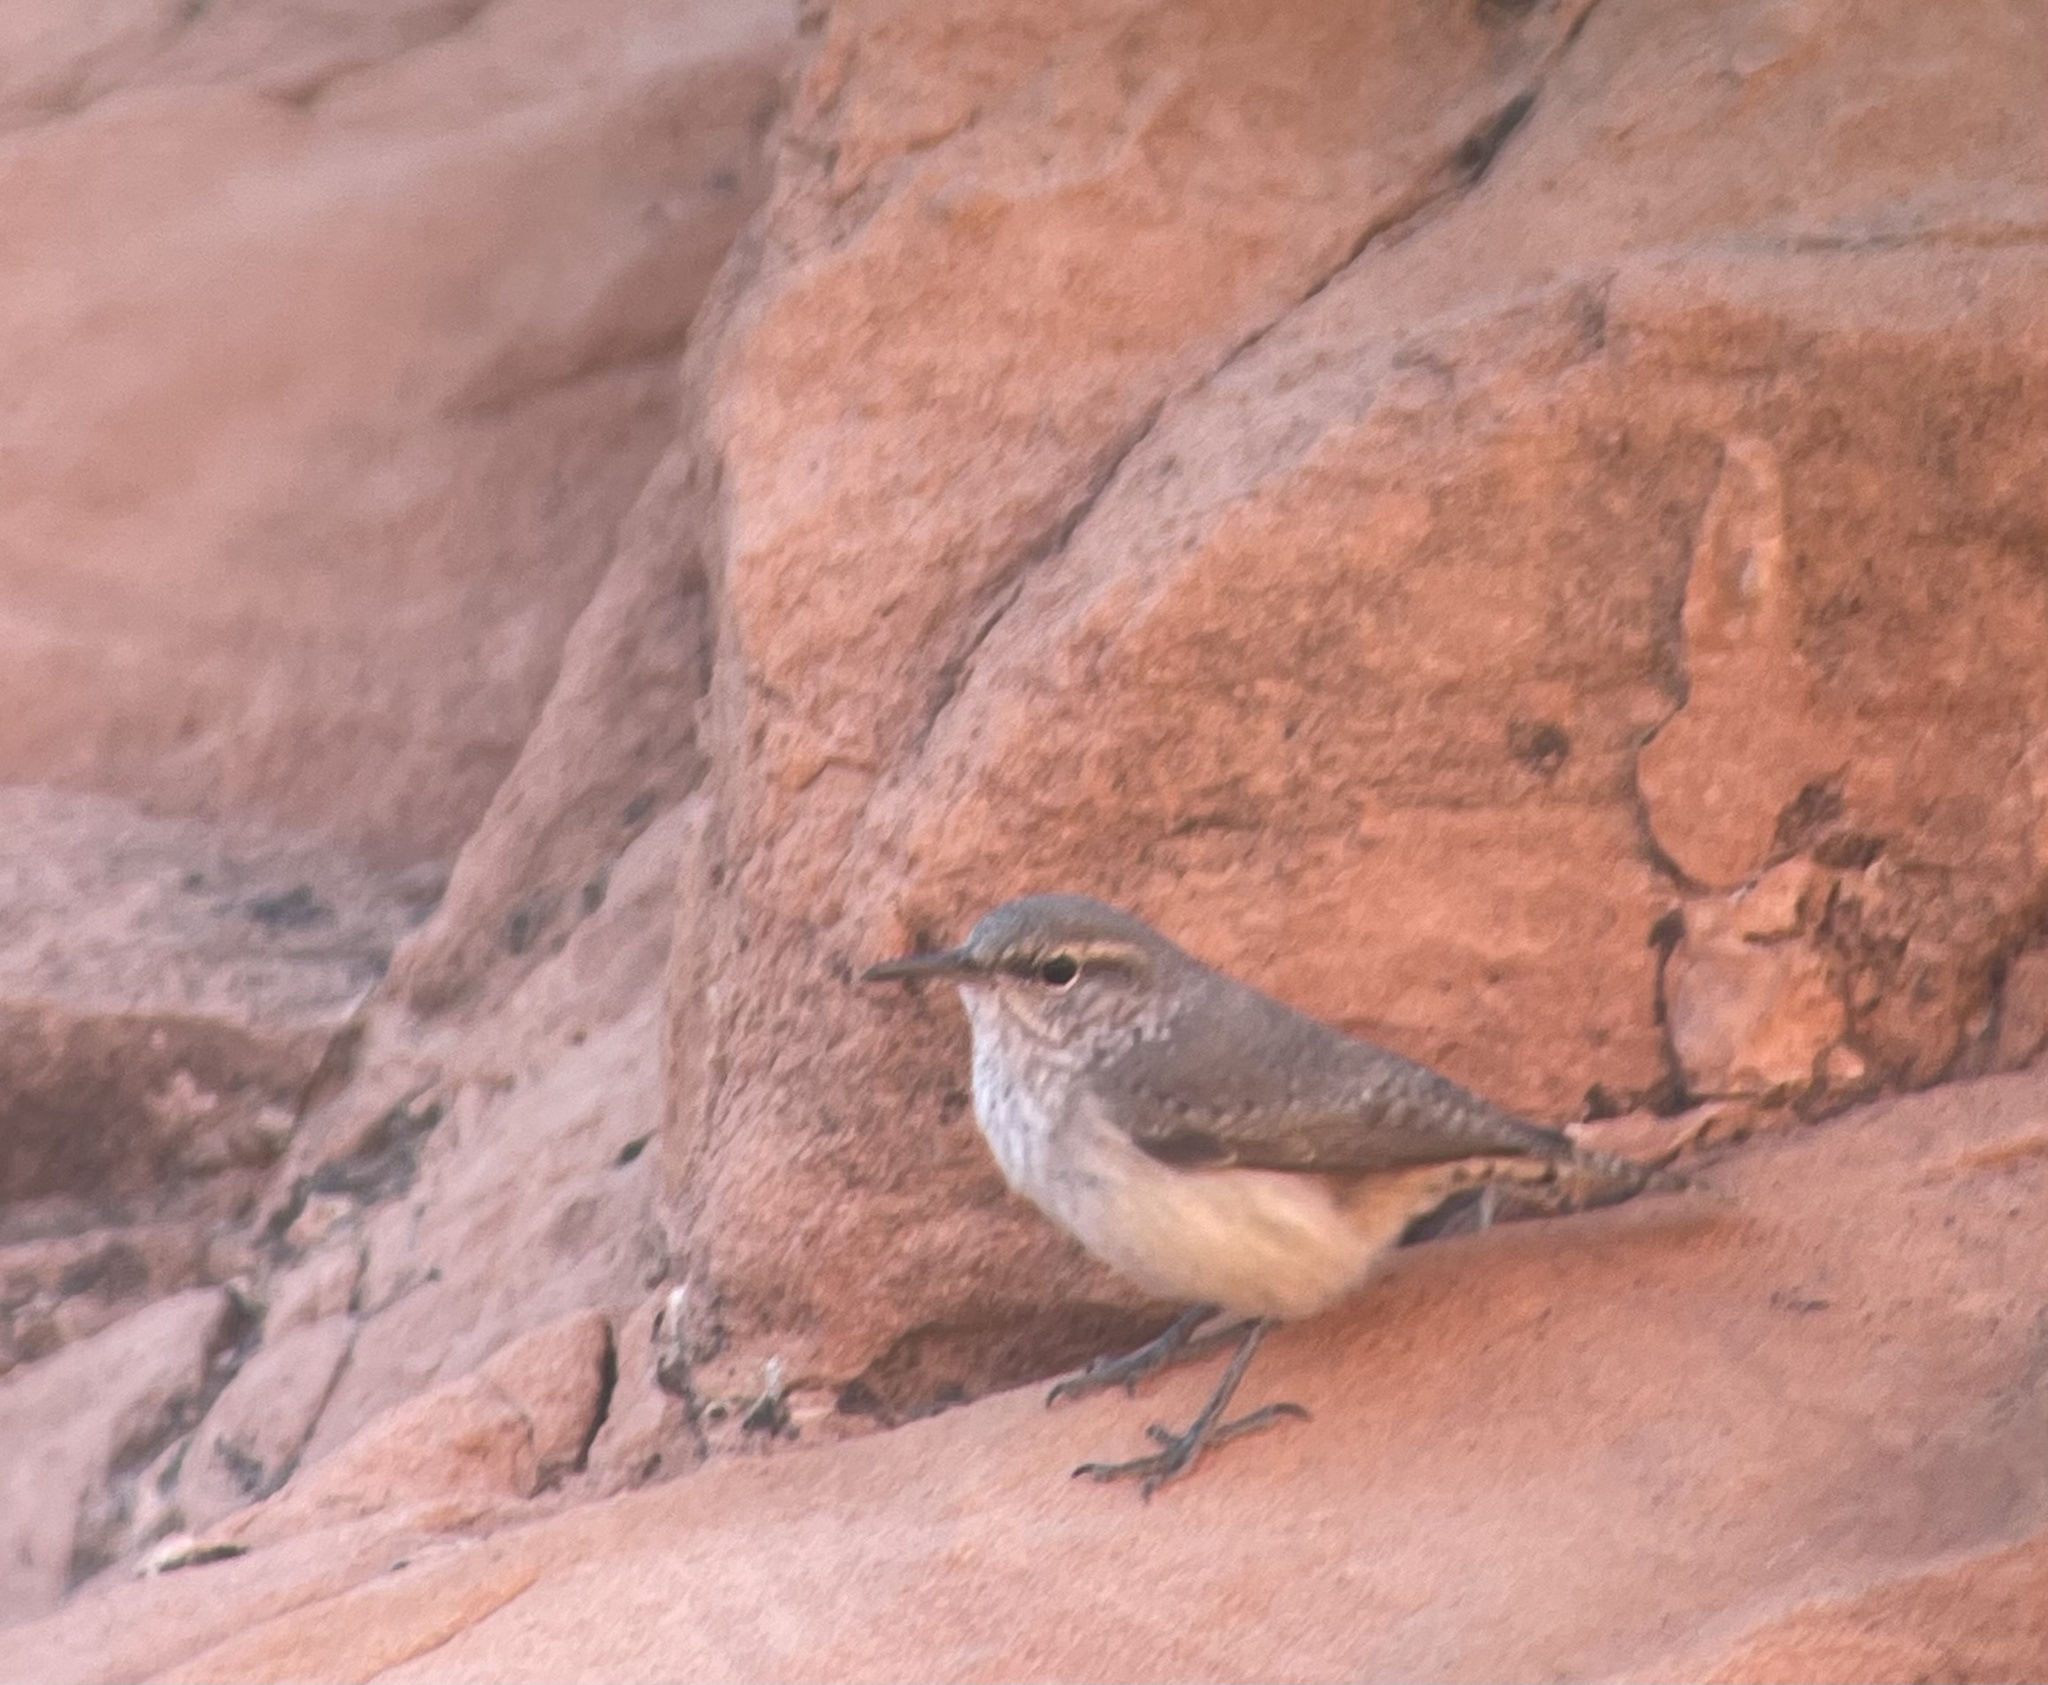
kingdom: Animalia
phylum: Chordata
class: Aves
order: Passeriformes
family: Troglodytidae
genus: Salpinctes
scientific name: Salpinctes obsoletus
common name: Rock wren
